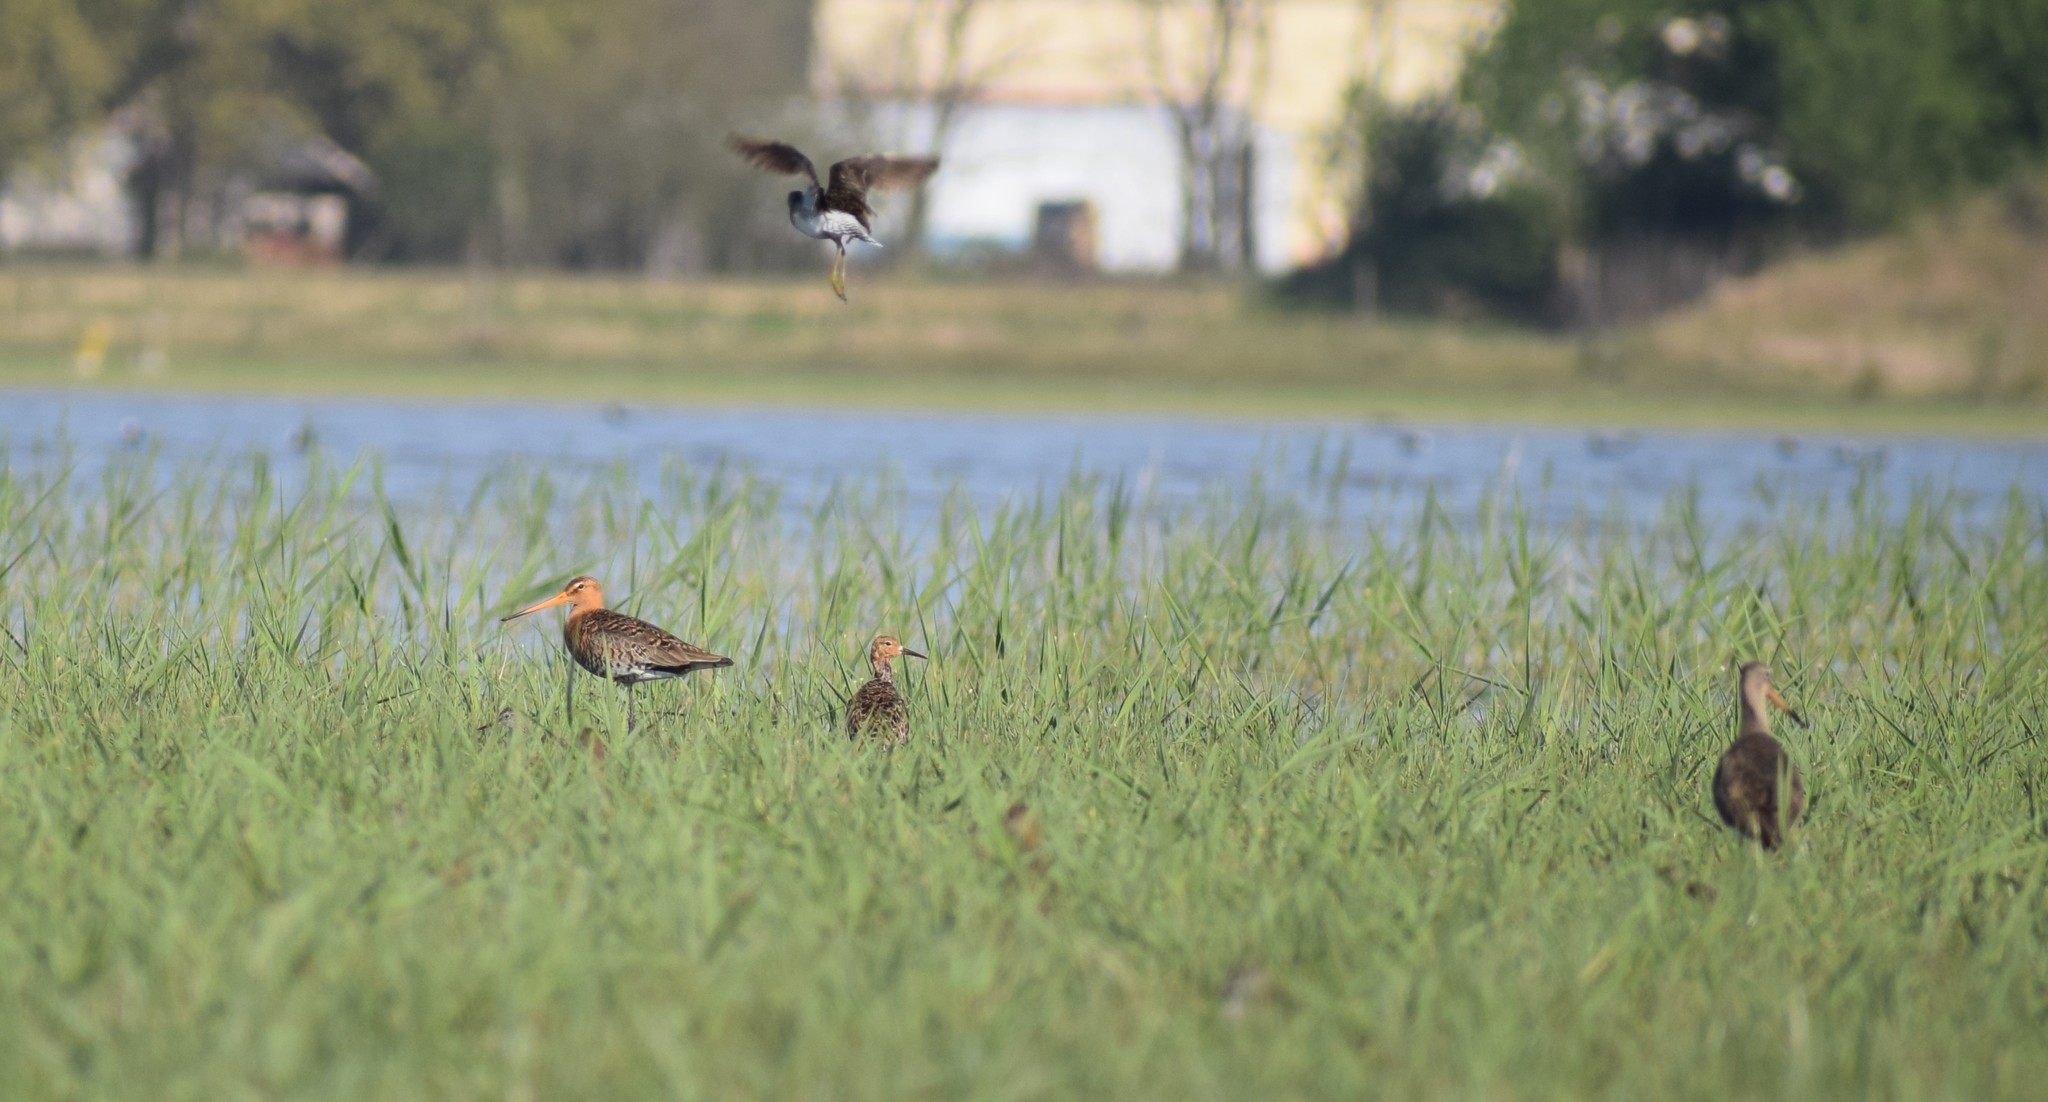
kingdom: Animalia
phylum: Chordata
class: Aves
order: Charadriiformes
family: Scolopacidae
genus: Limosa
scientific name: Limosa limosa
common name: Black-tailed godwit
